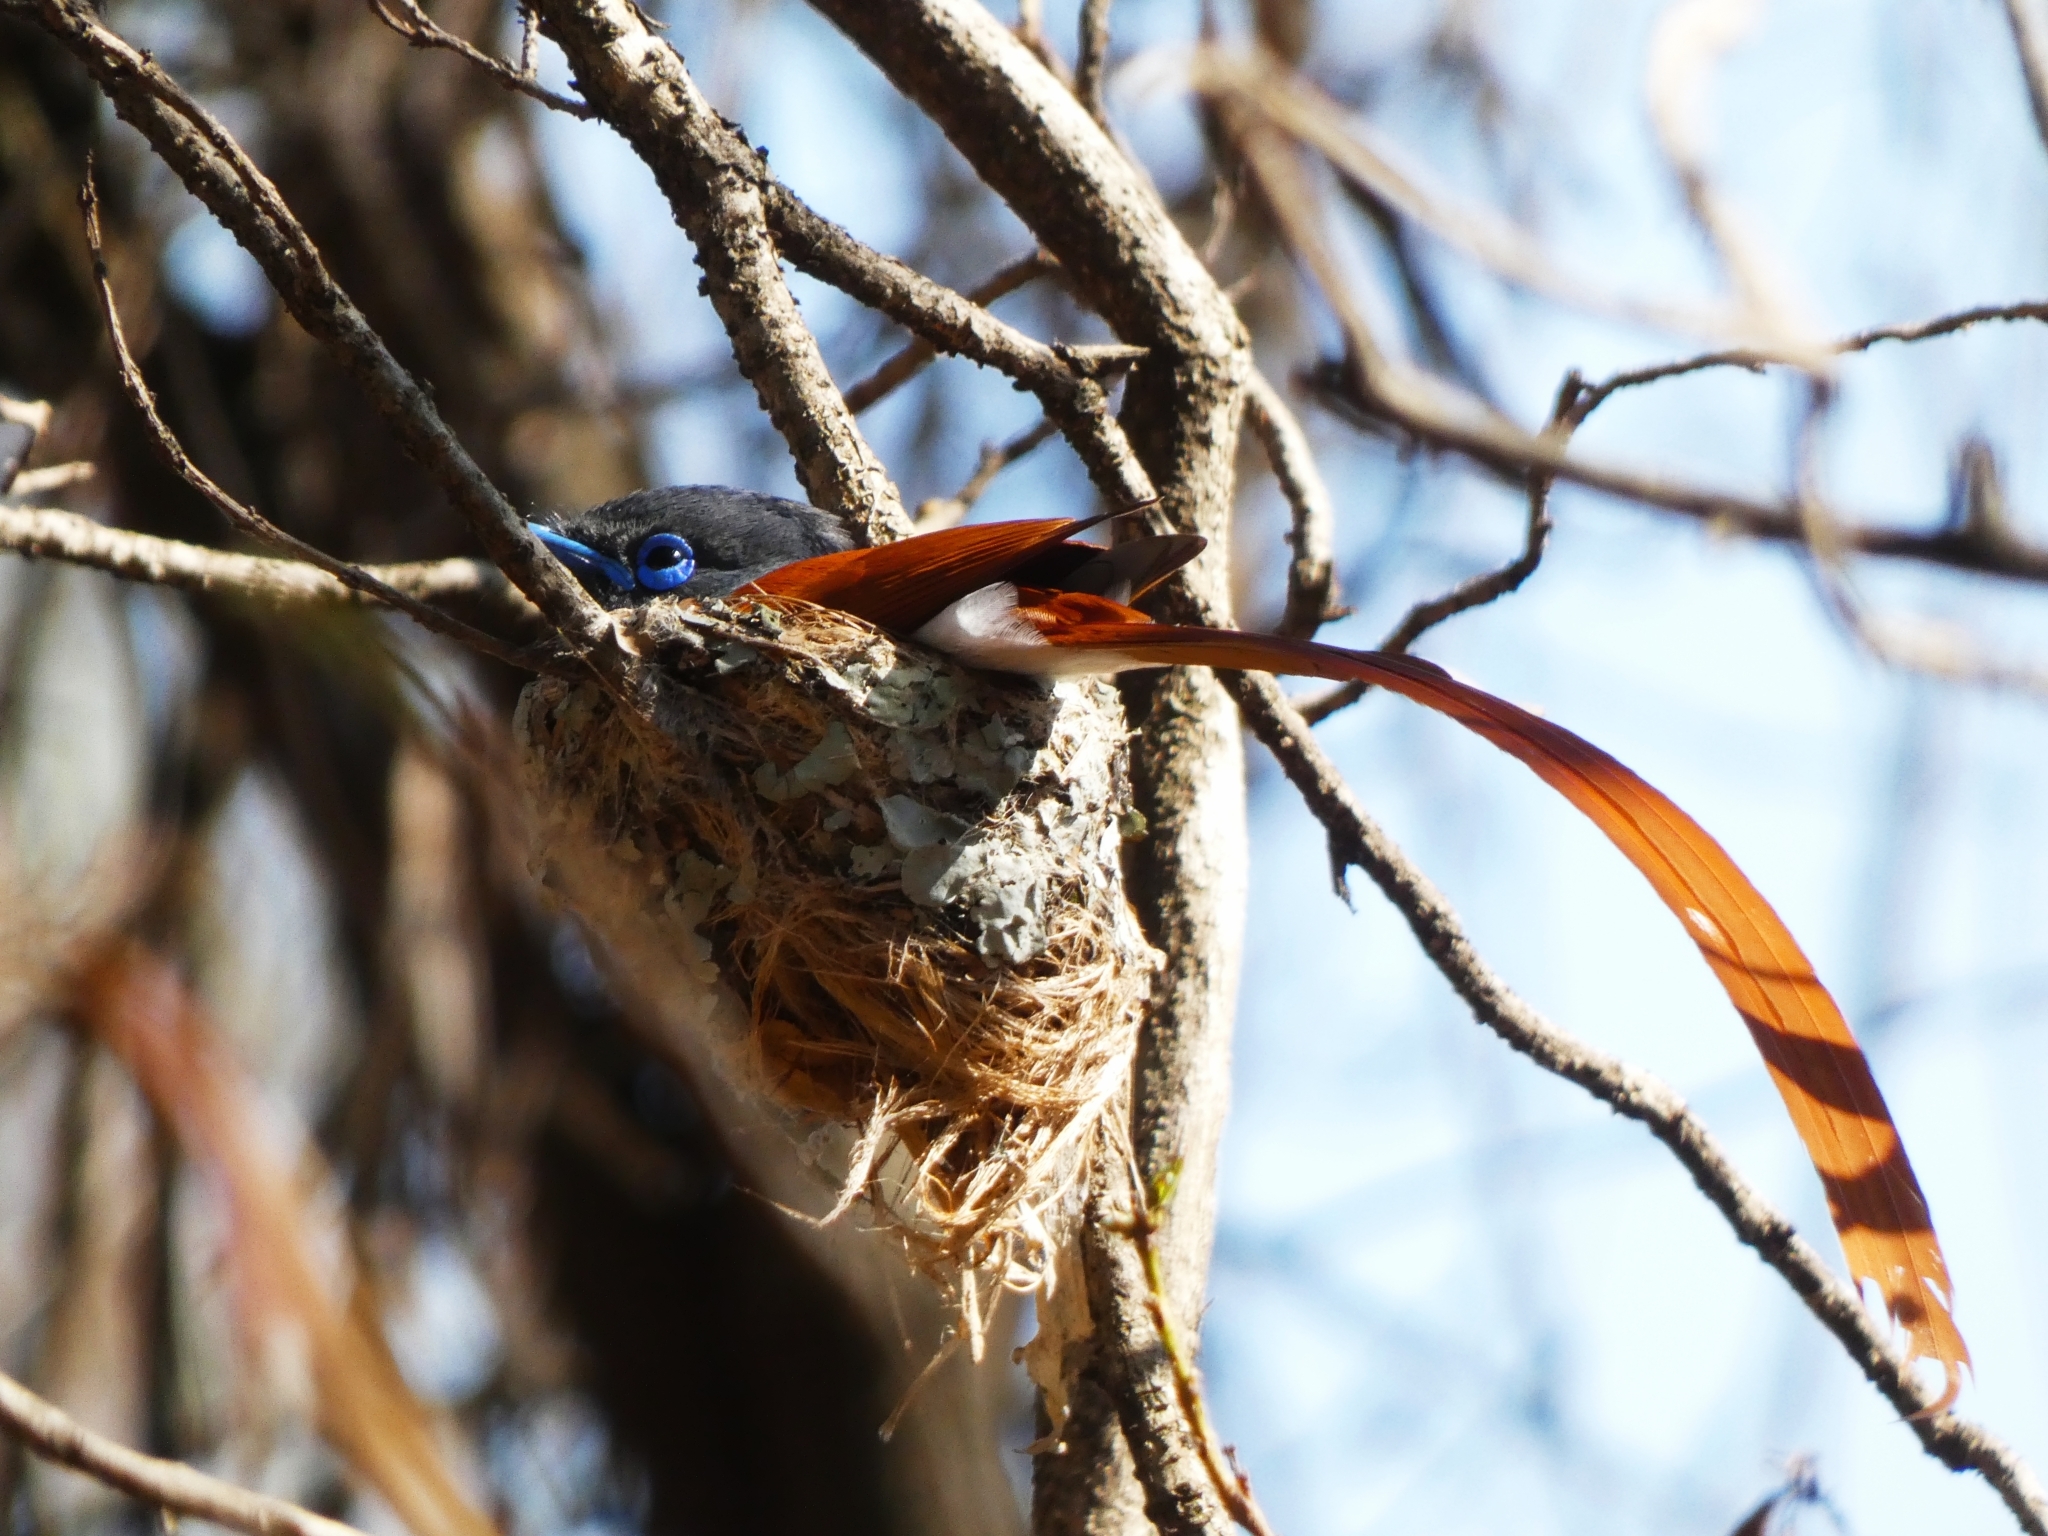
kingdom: Animalia
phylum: Chordata
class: Aves
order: Passeriformes
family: Monarchidae
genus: Terpsiphone
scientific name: Terpsiphone viridis
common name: African paradise flycatcher
